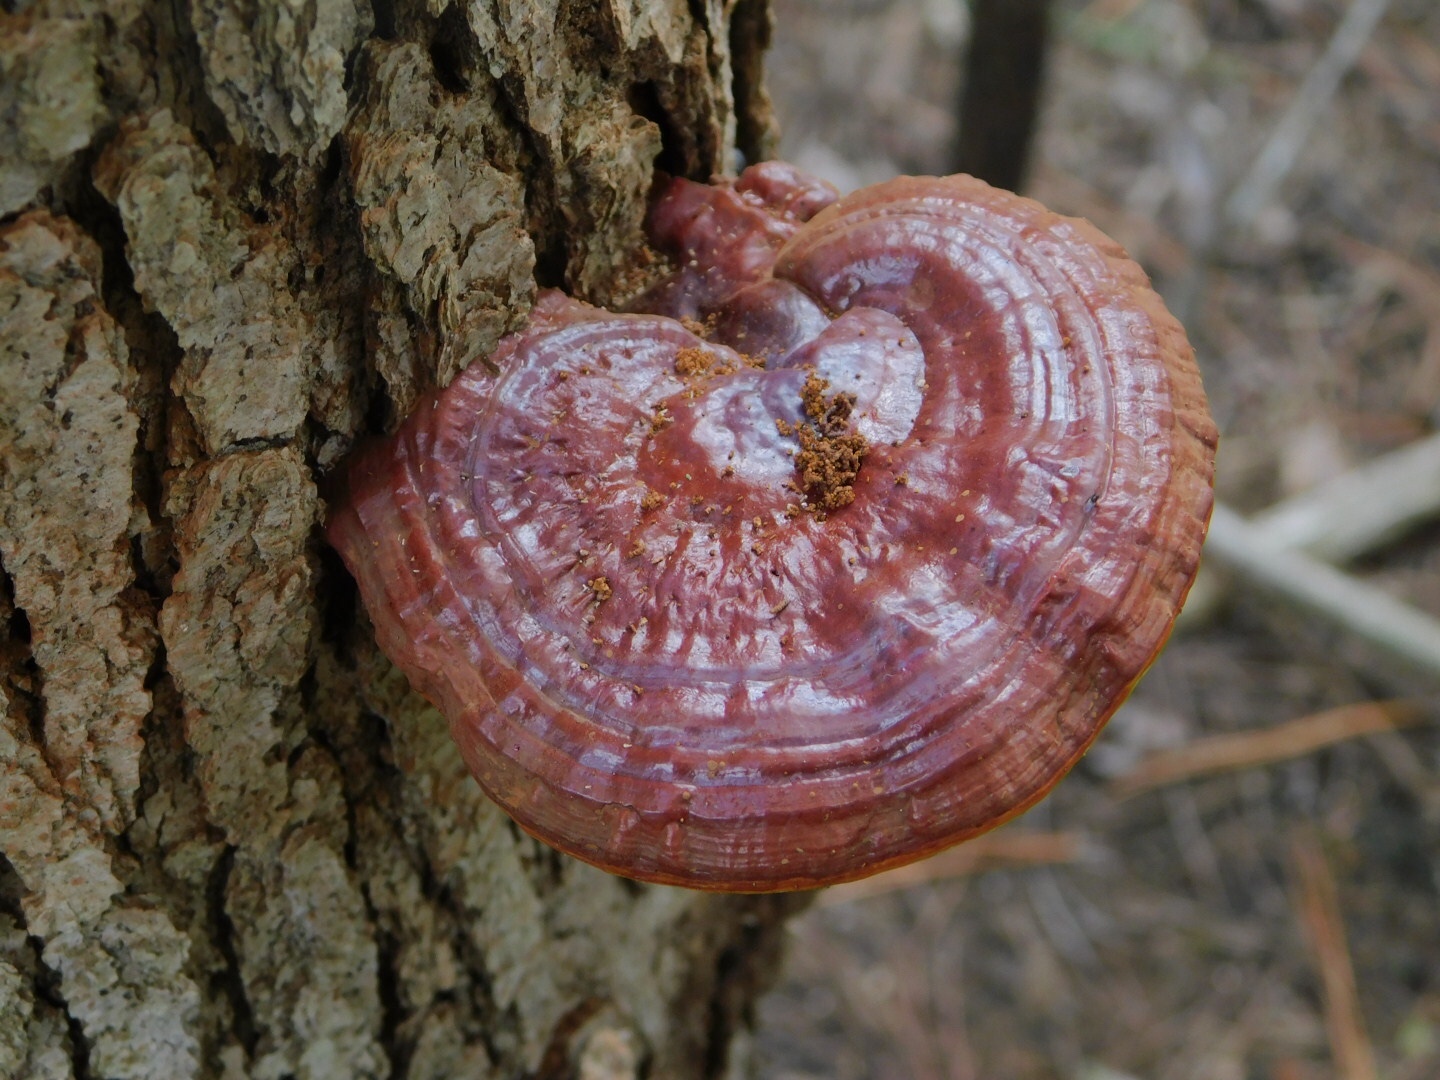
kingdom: Fungi
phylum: Basidiomycota
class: Agaricomycetes
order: Polyporales
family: Polyporaceae
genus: Ganoderma
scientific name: Ganoderma curtisii
